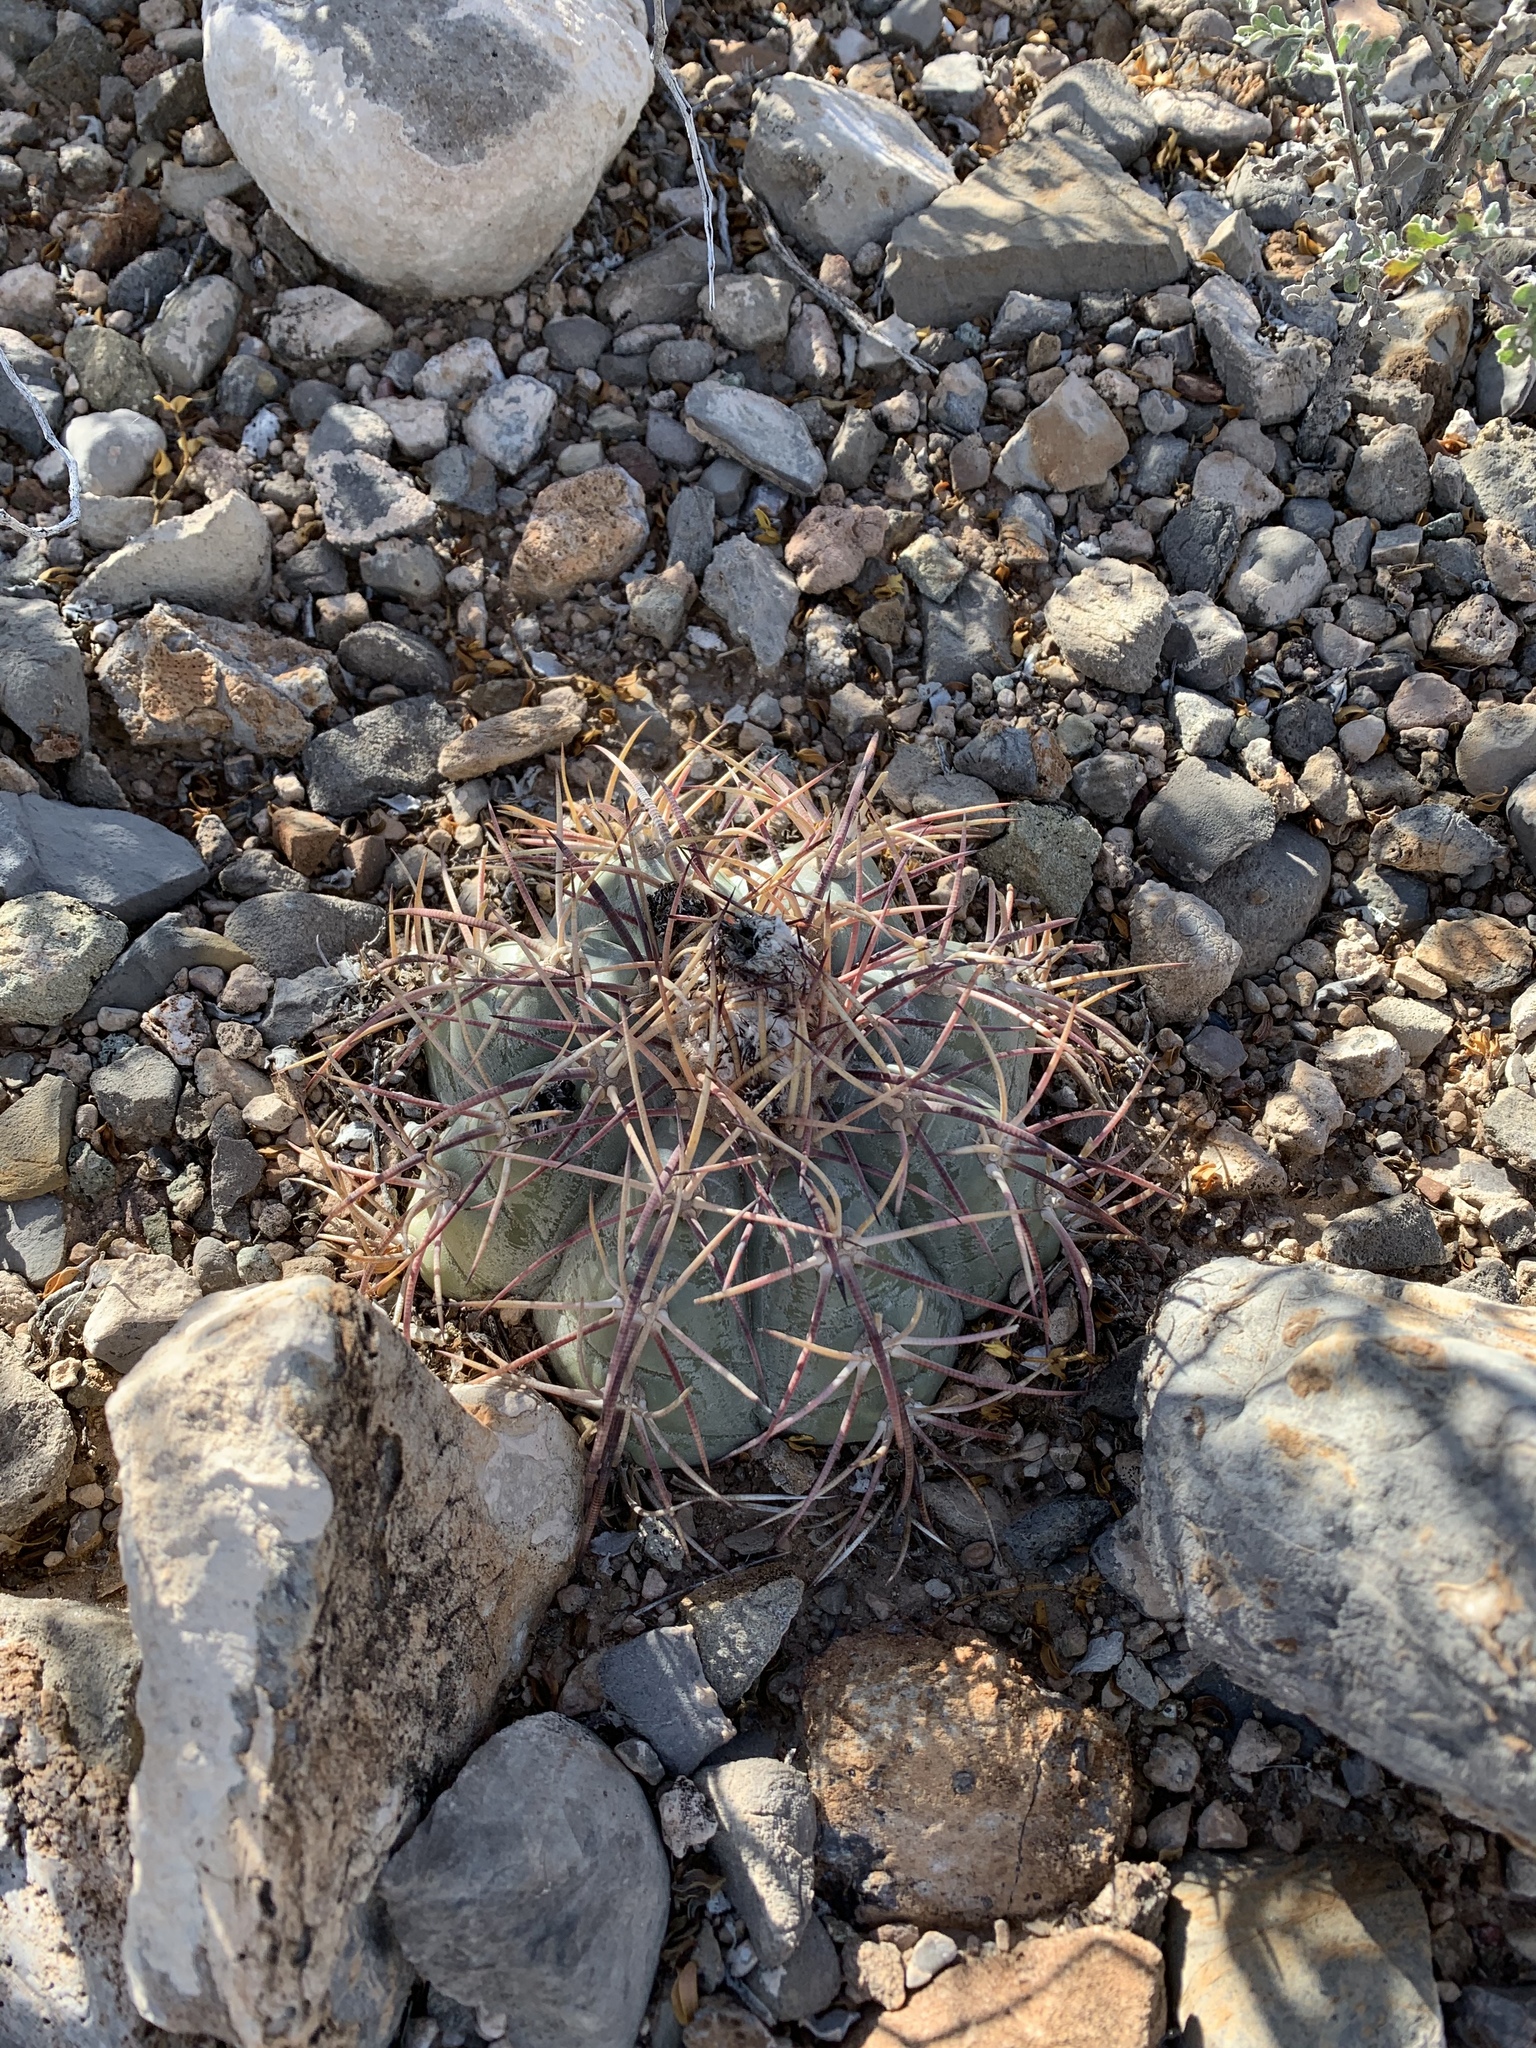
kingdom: Plantae
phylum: Tracheophyta
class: Magnoliopsida
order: Caryophyllales
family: Cactaceae
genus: Echinocactus
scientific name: Echinocactus horizonthalonius
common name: Devilshead
